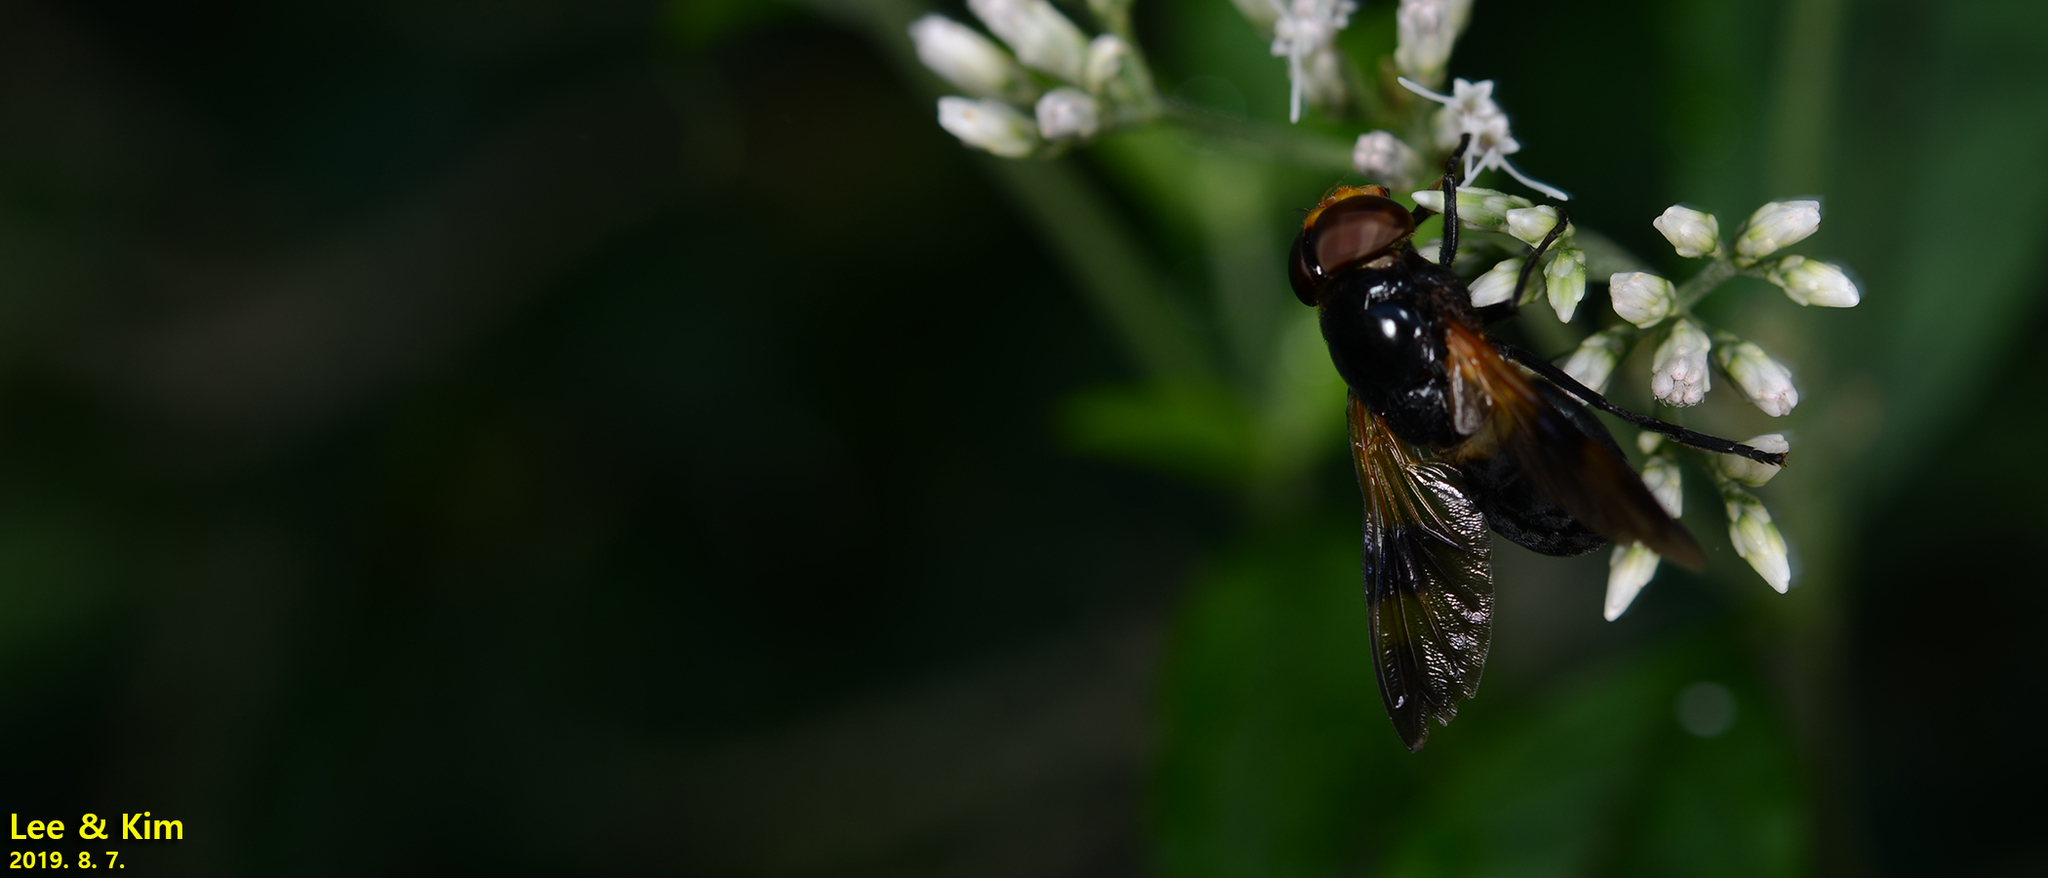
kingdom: Animalia
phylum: Arthropoda
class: Insecta
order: Diptera
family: Syrphidae
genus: Volucella
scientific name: Volucella nigricans
